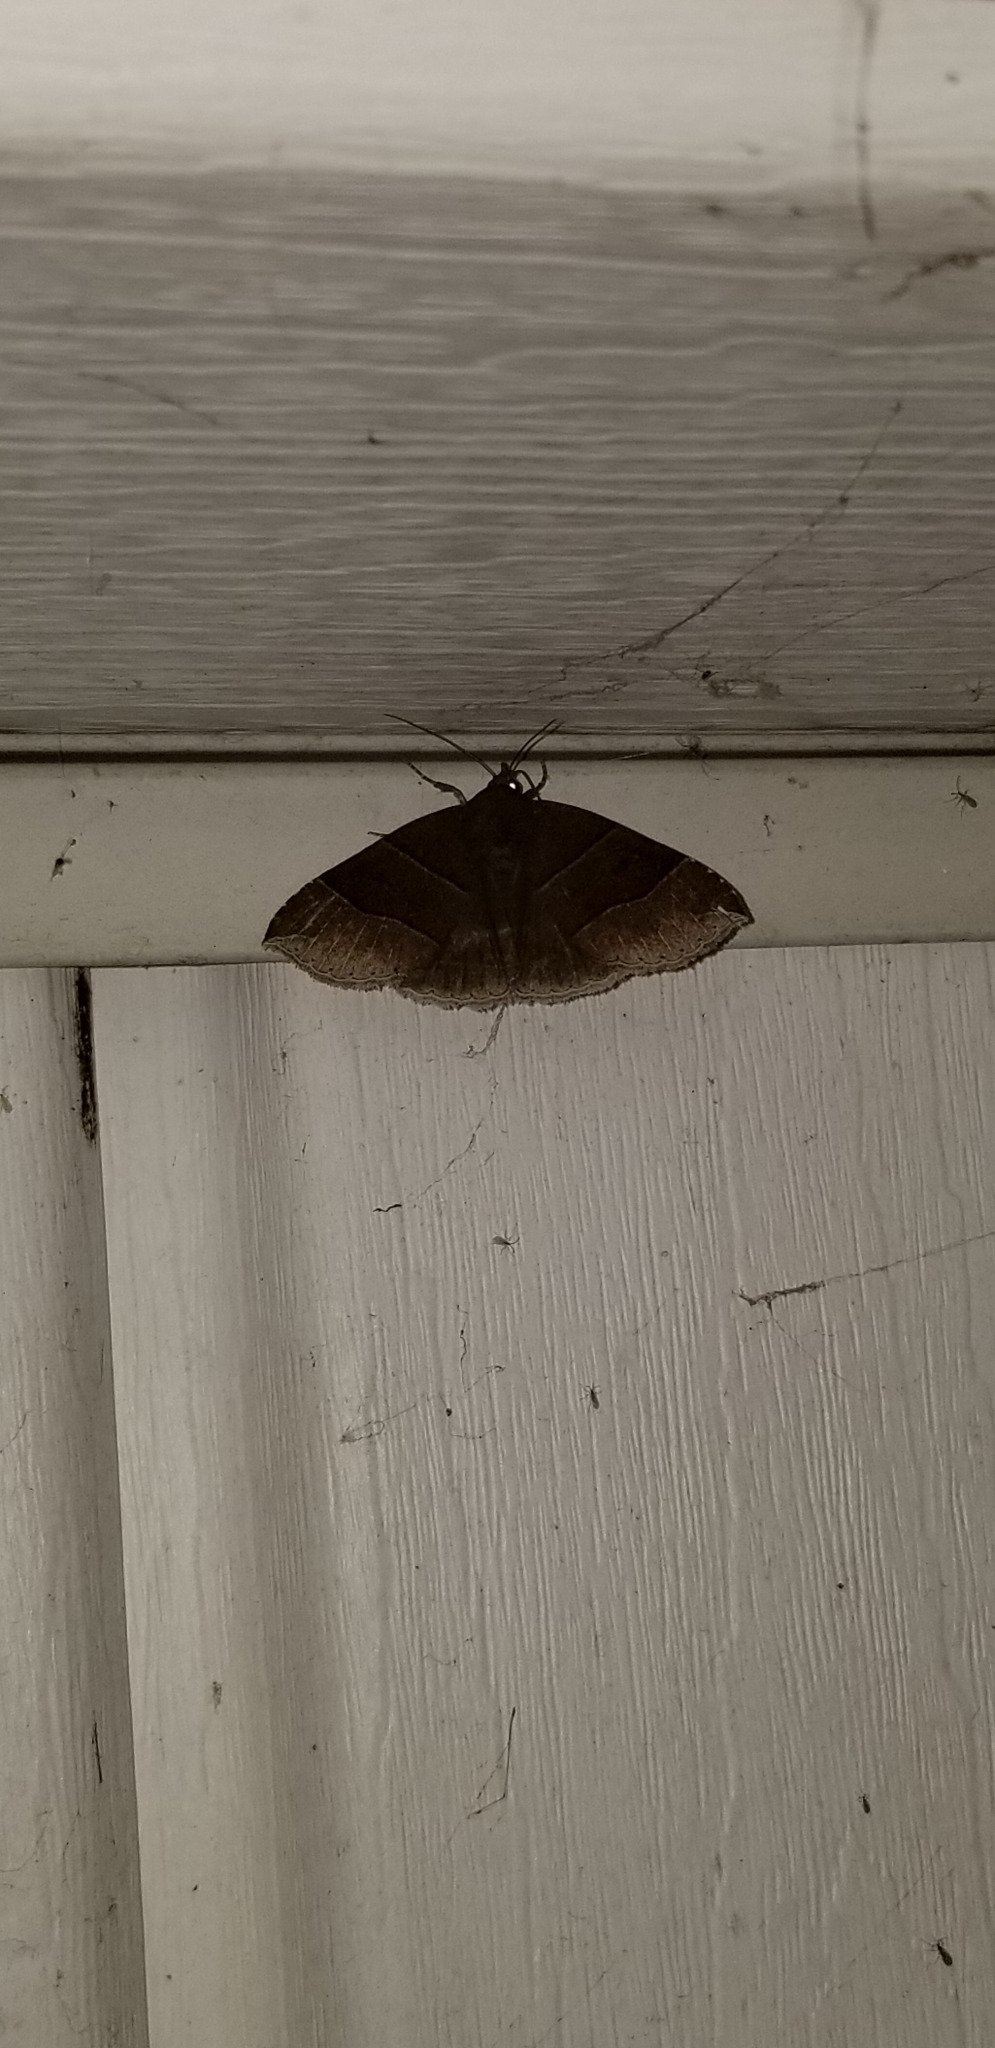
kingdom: Animalia
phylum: Arthropoda
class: Insecta
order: Lepidoptera
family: Erebidae
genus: Parallelia
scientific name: Parallelia bistriaris
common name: Maple looper moth
